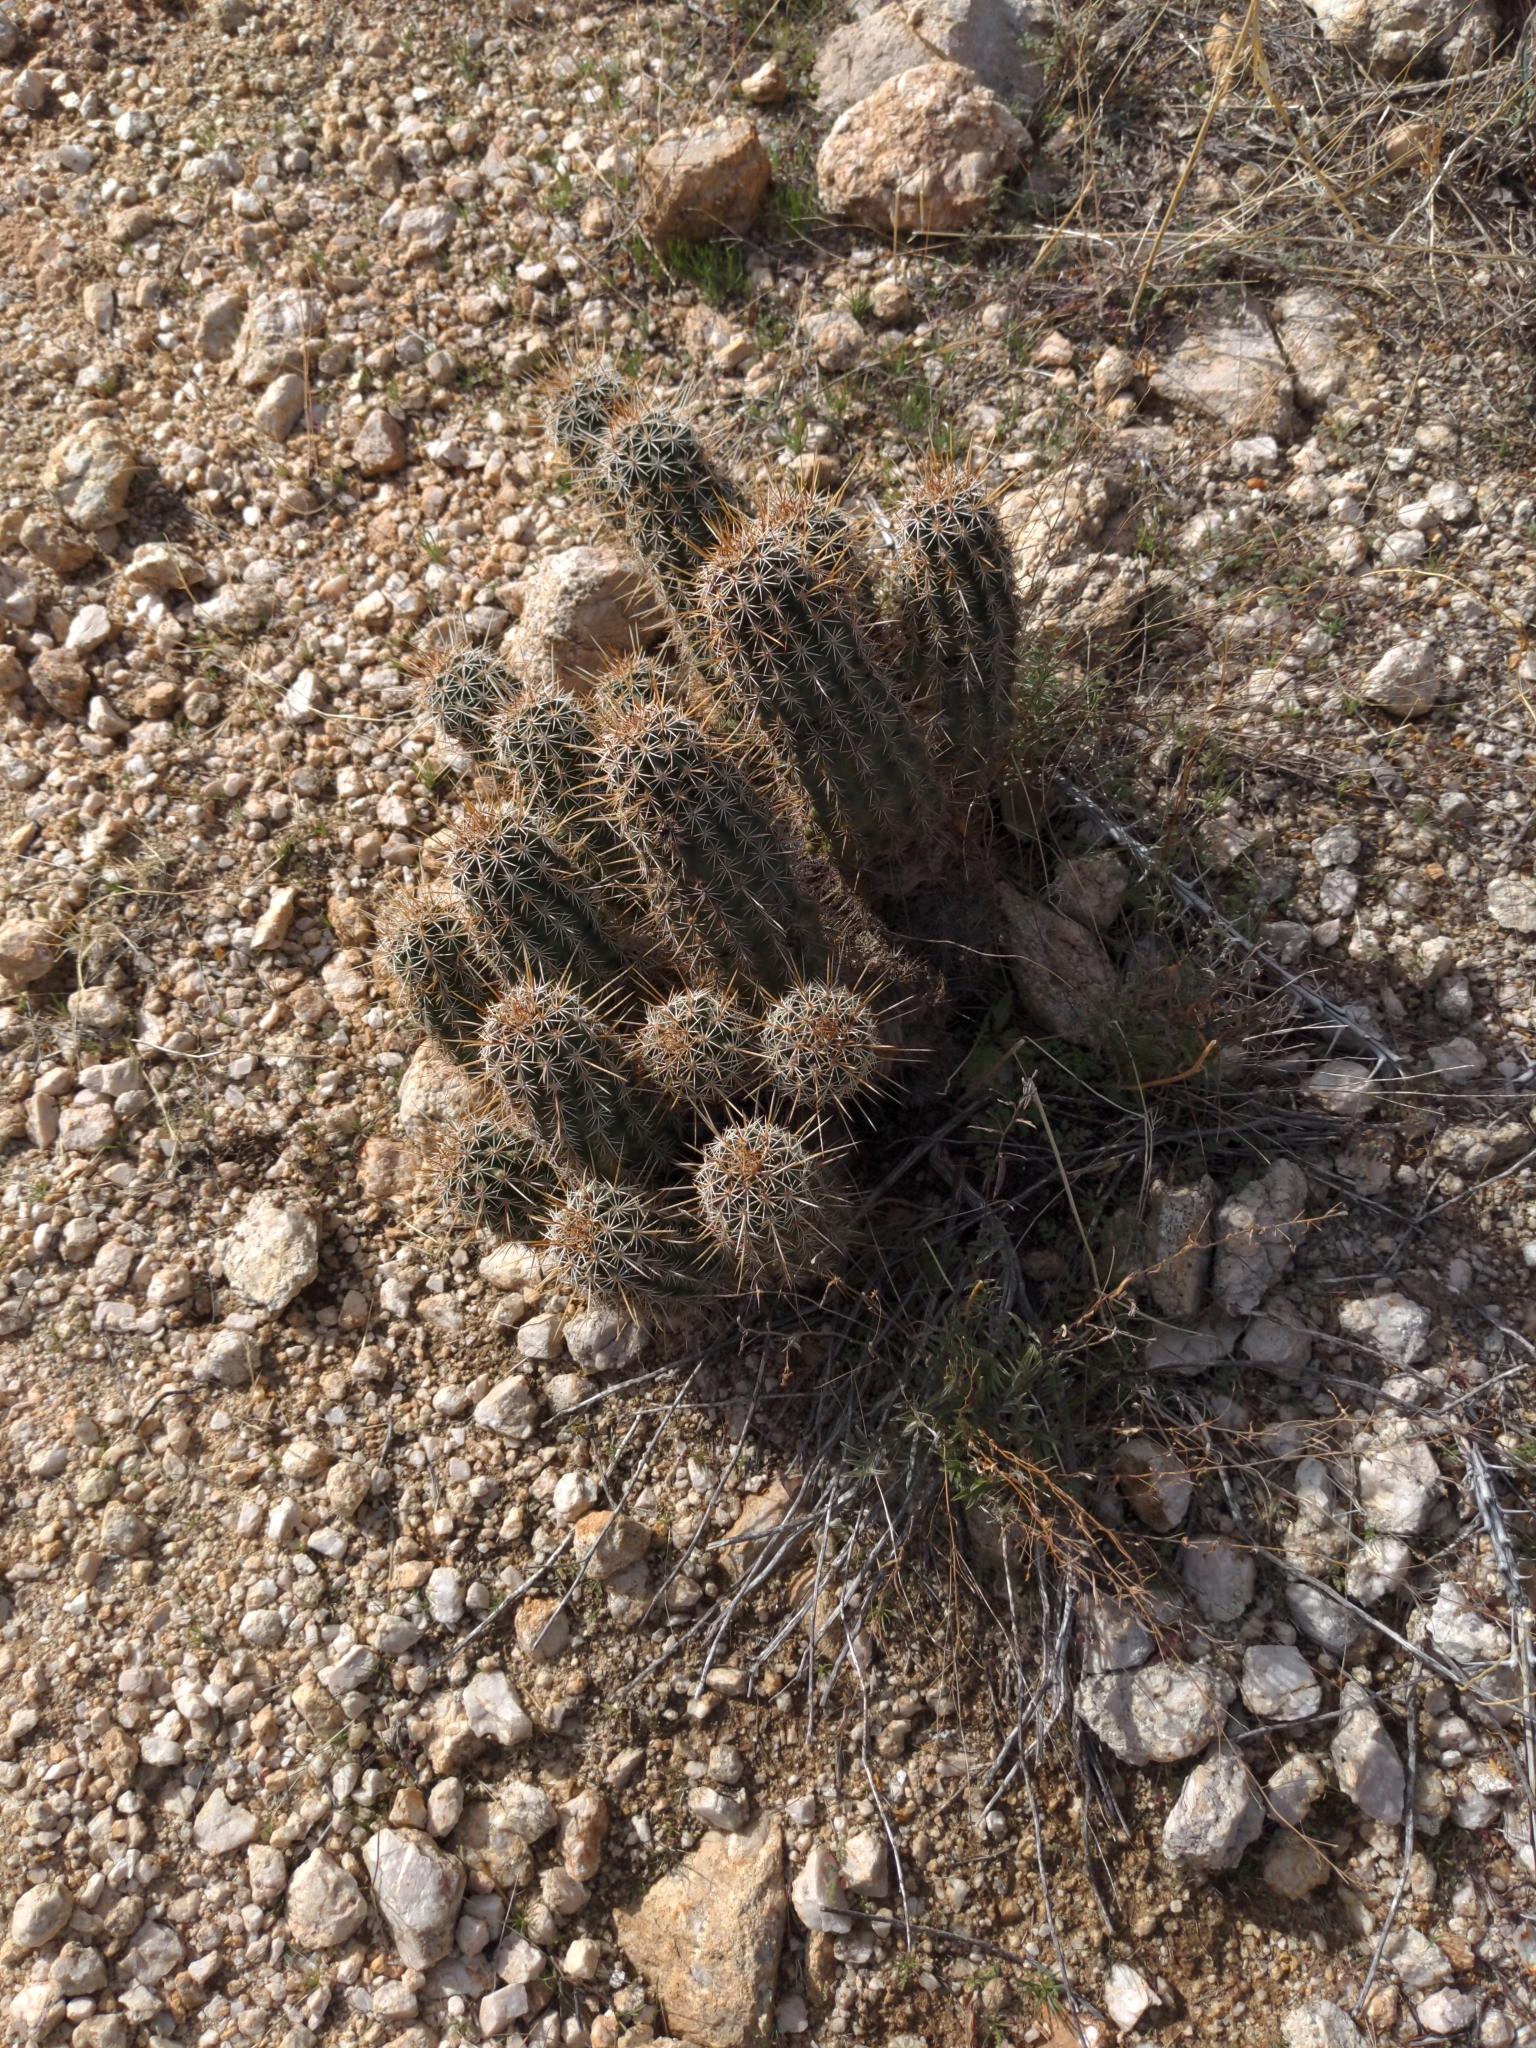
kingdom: Plantae
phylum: Tracheophyta
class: Magnoliopsida
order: Caryophyllales
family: Cactaceae
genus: Echinocereus
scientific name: Echinocereus fasciculatus
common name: Bundle hedgehog
